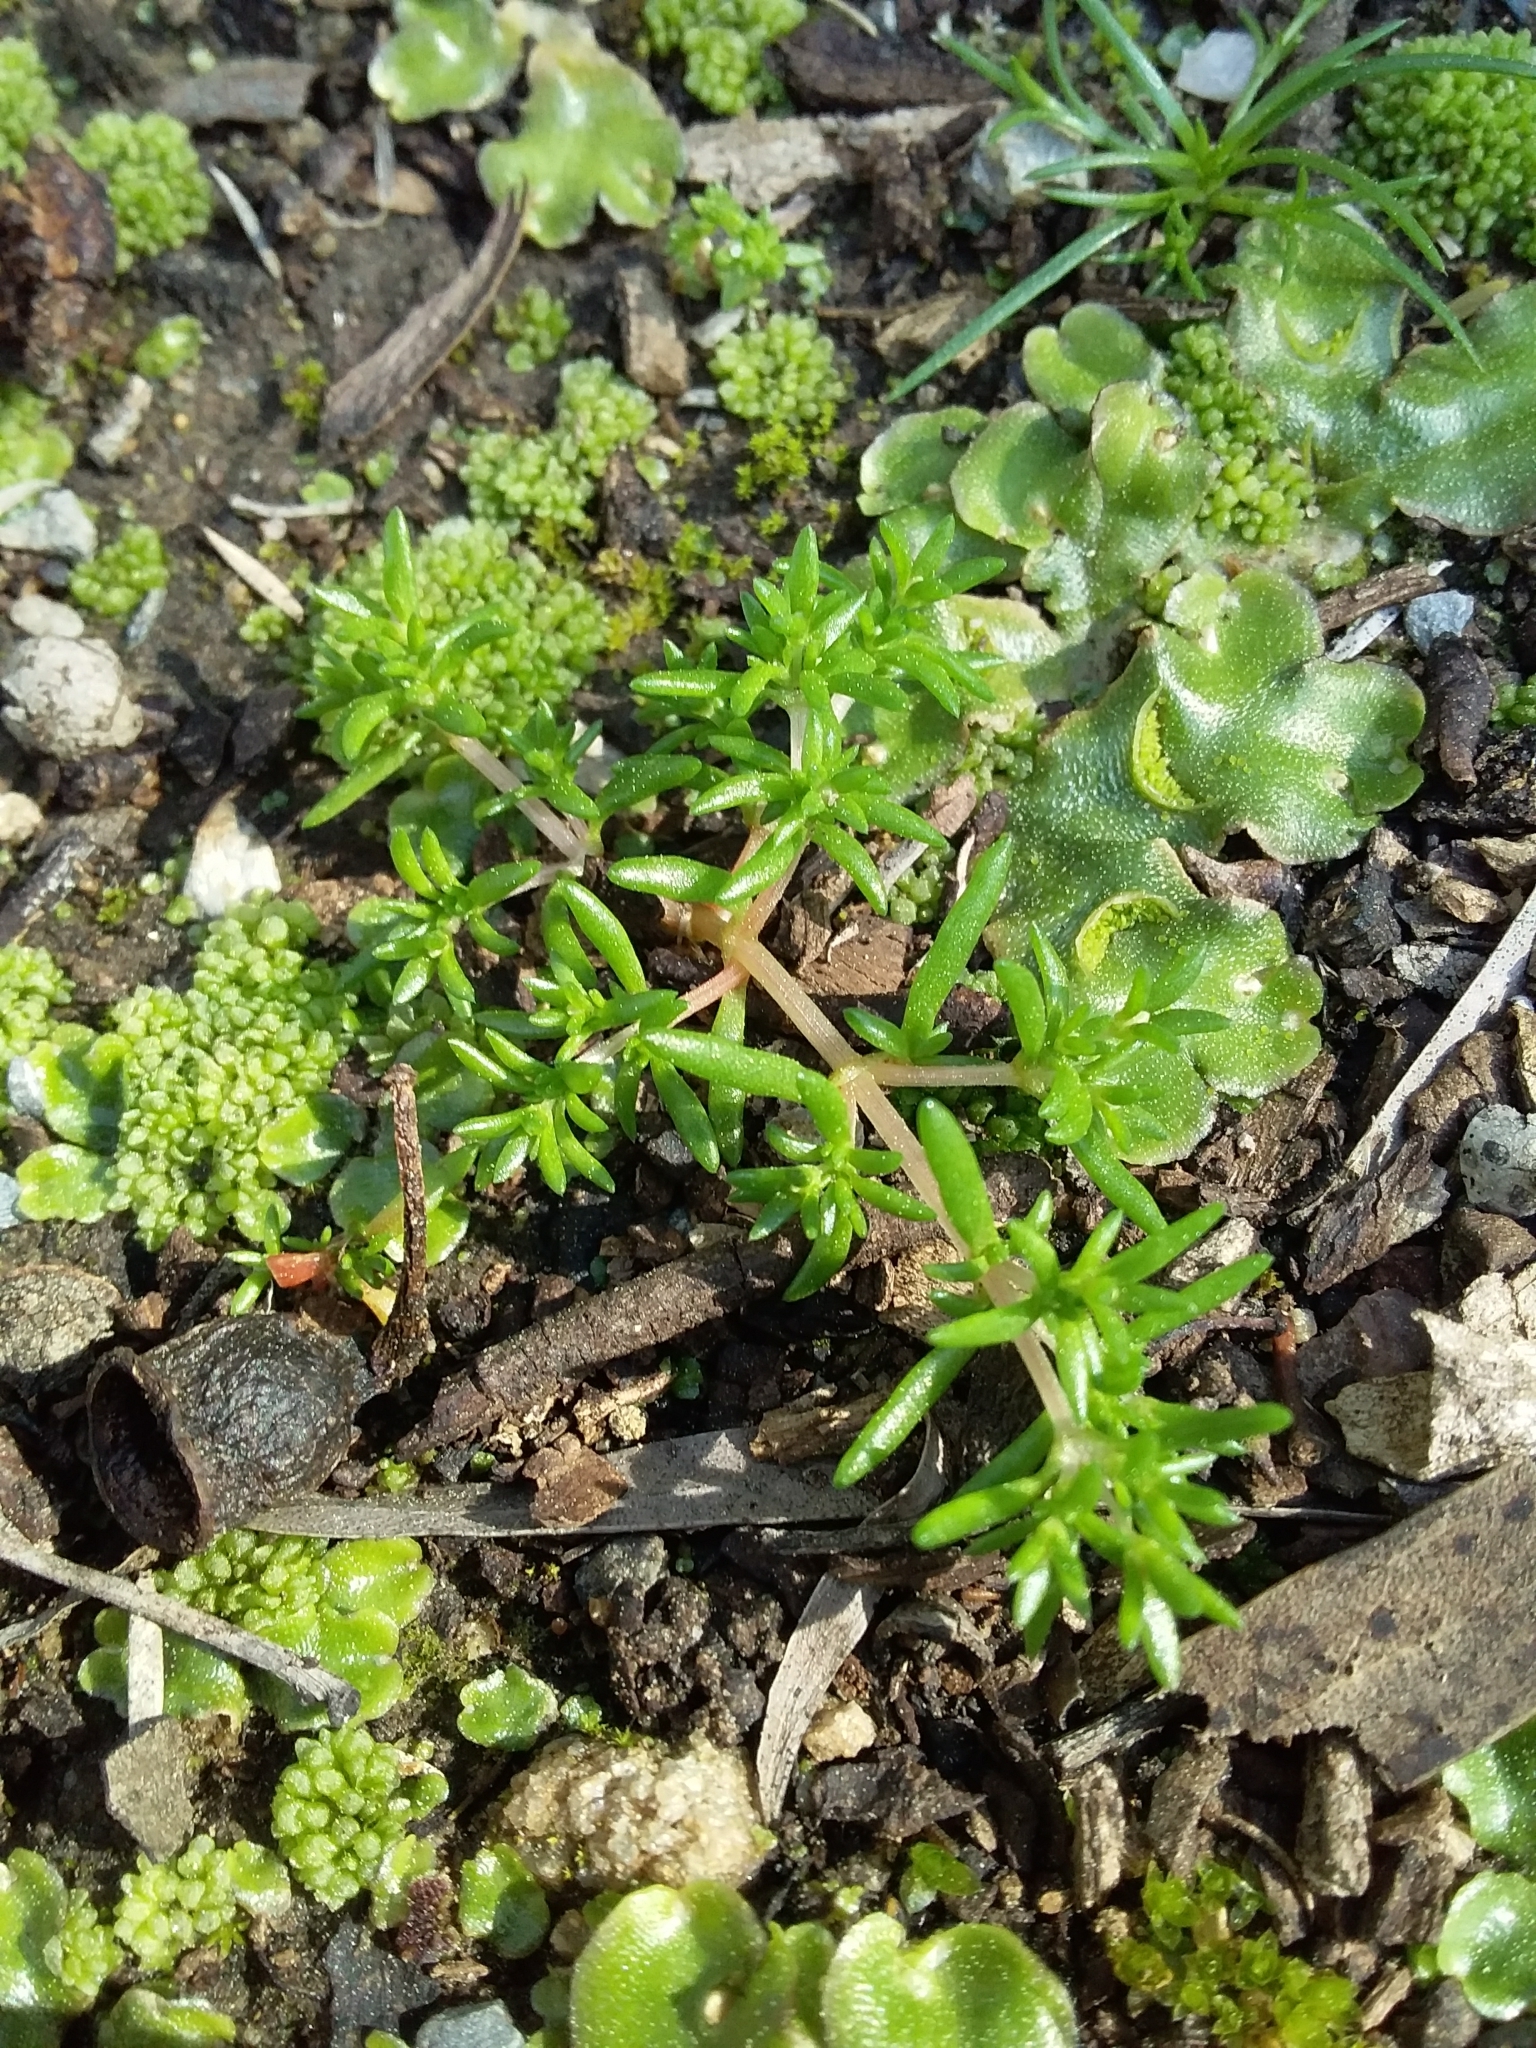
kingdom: Plantae
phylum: Tracheophyta
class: Magnoliopsida
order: Saxifragales
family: Crassulaceae
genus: Crassula
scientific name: Crassula decumbens
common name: Scilly pigmyweed
